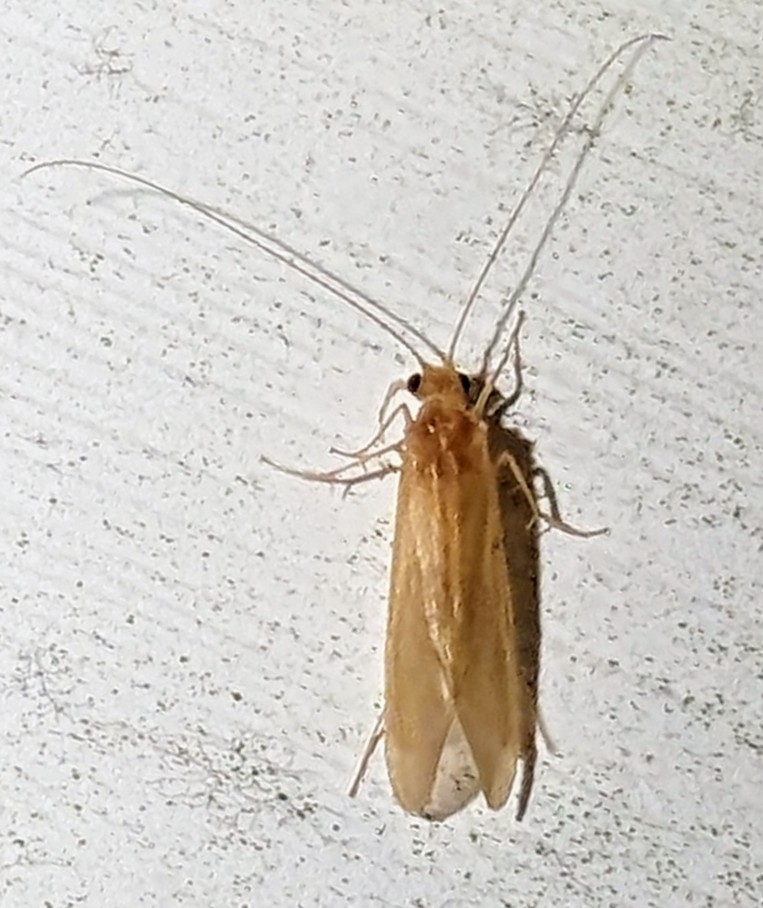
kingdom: Animalia
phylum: Arthropoda
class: Insecta
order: Trichoptera
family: Hydropsychidae
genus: Potamyia
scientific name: Potamyia flava
